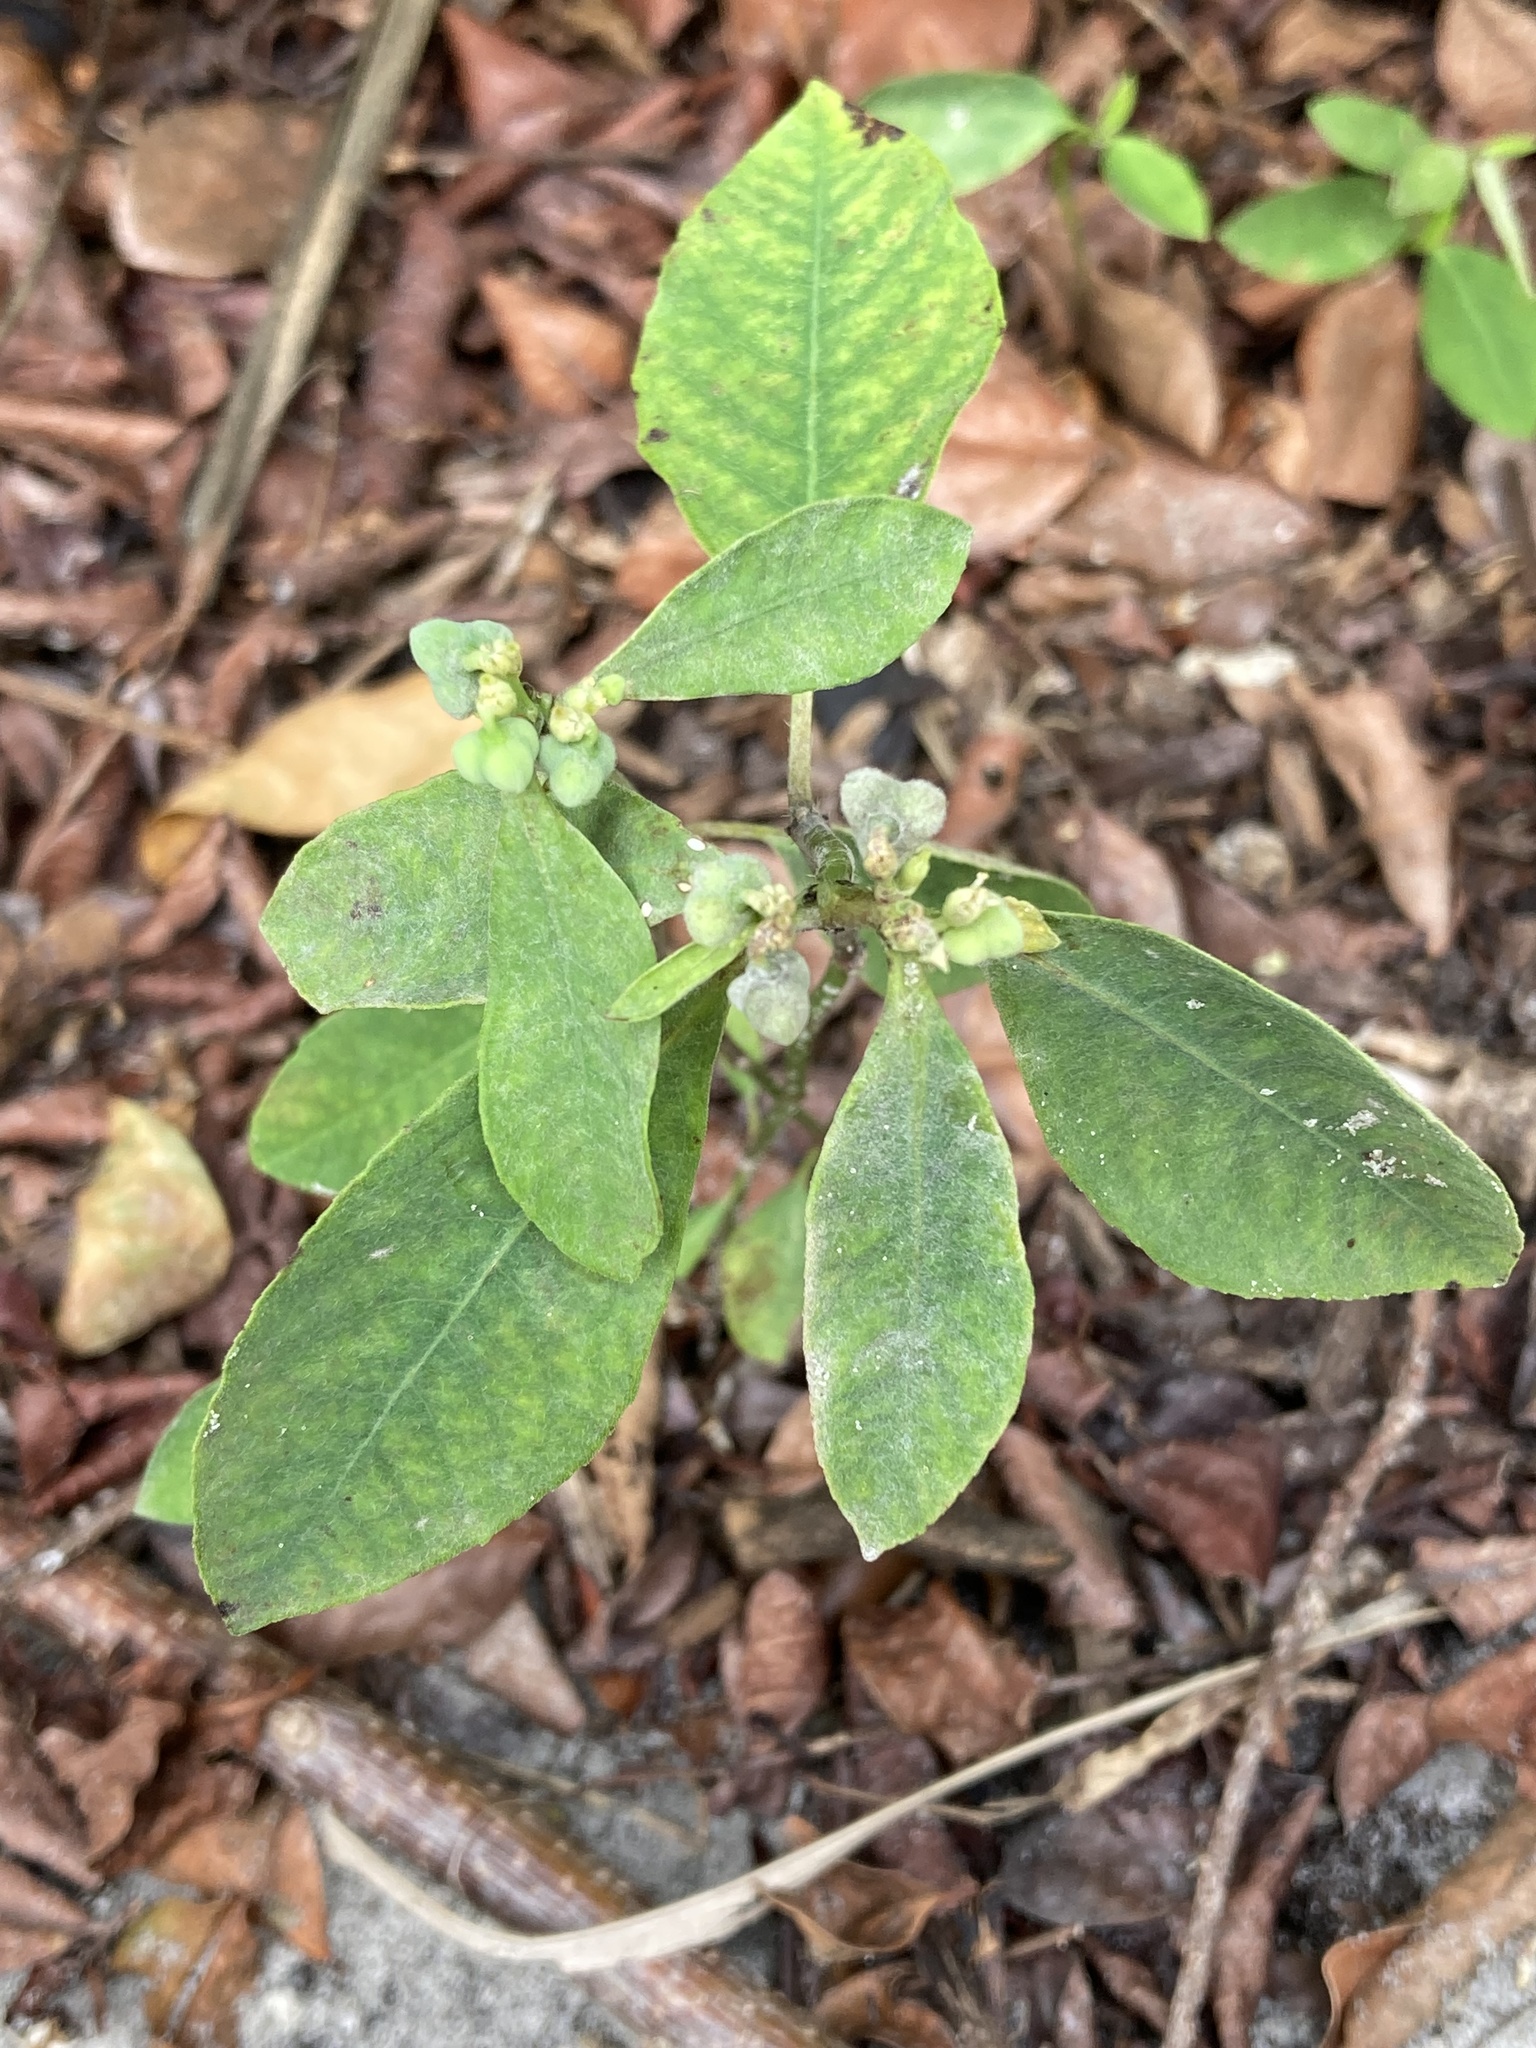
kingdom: Plantae
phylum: Tracheophyta
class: Magnoliopsida
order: Malpighiales
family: Euphorbiaceae
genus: Euphorbia
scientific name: Euphorbia heterophylla
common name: Mexican fireplant
